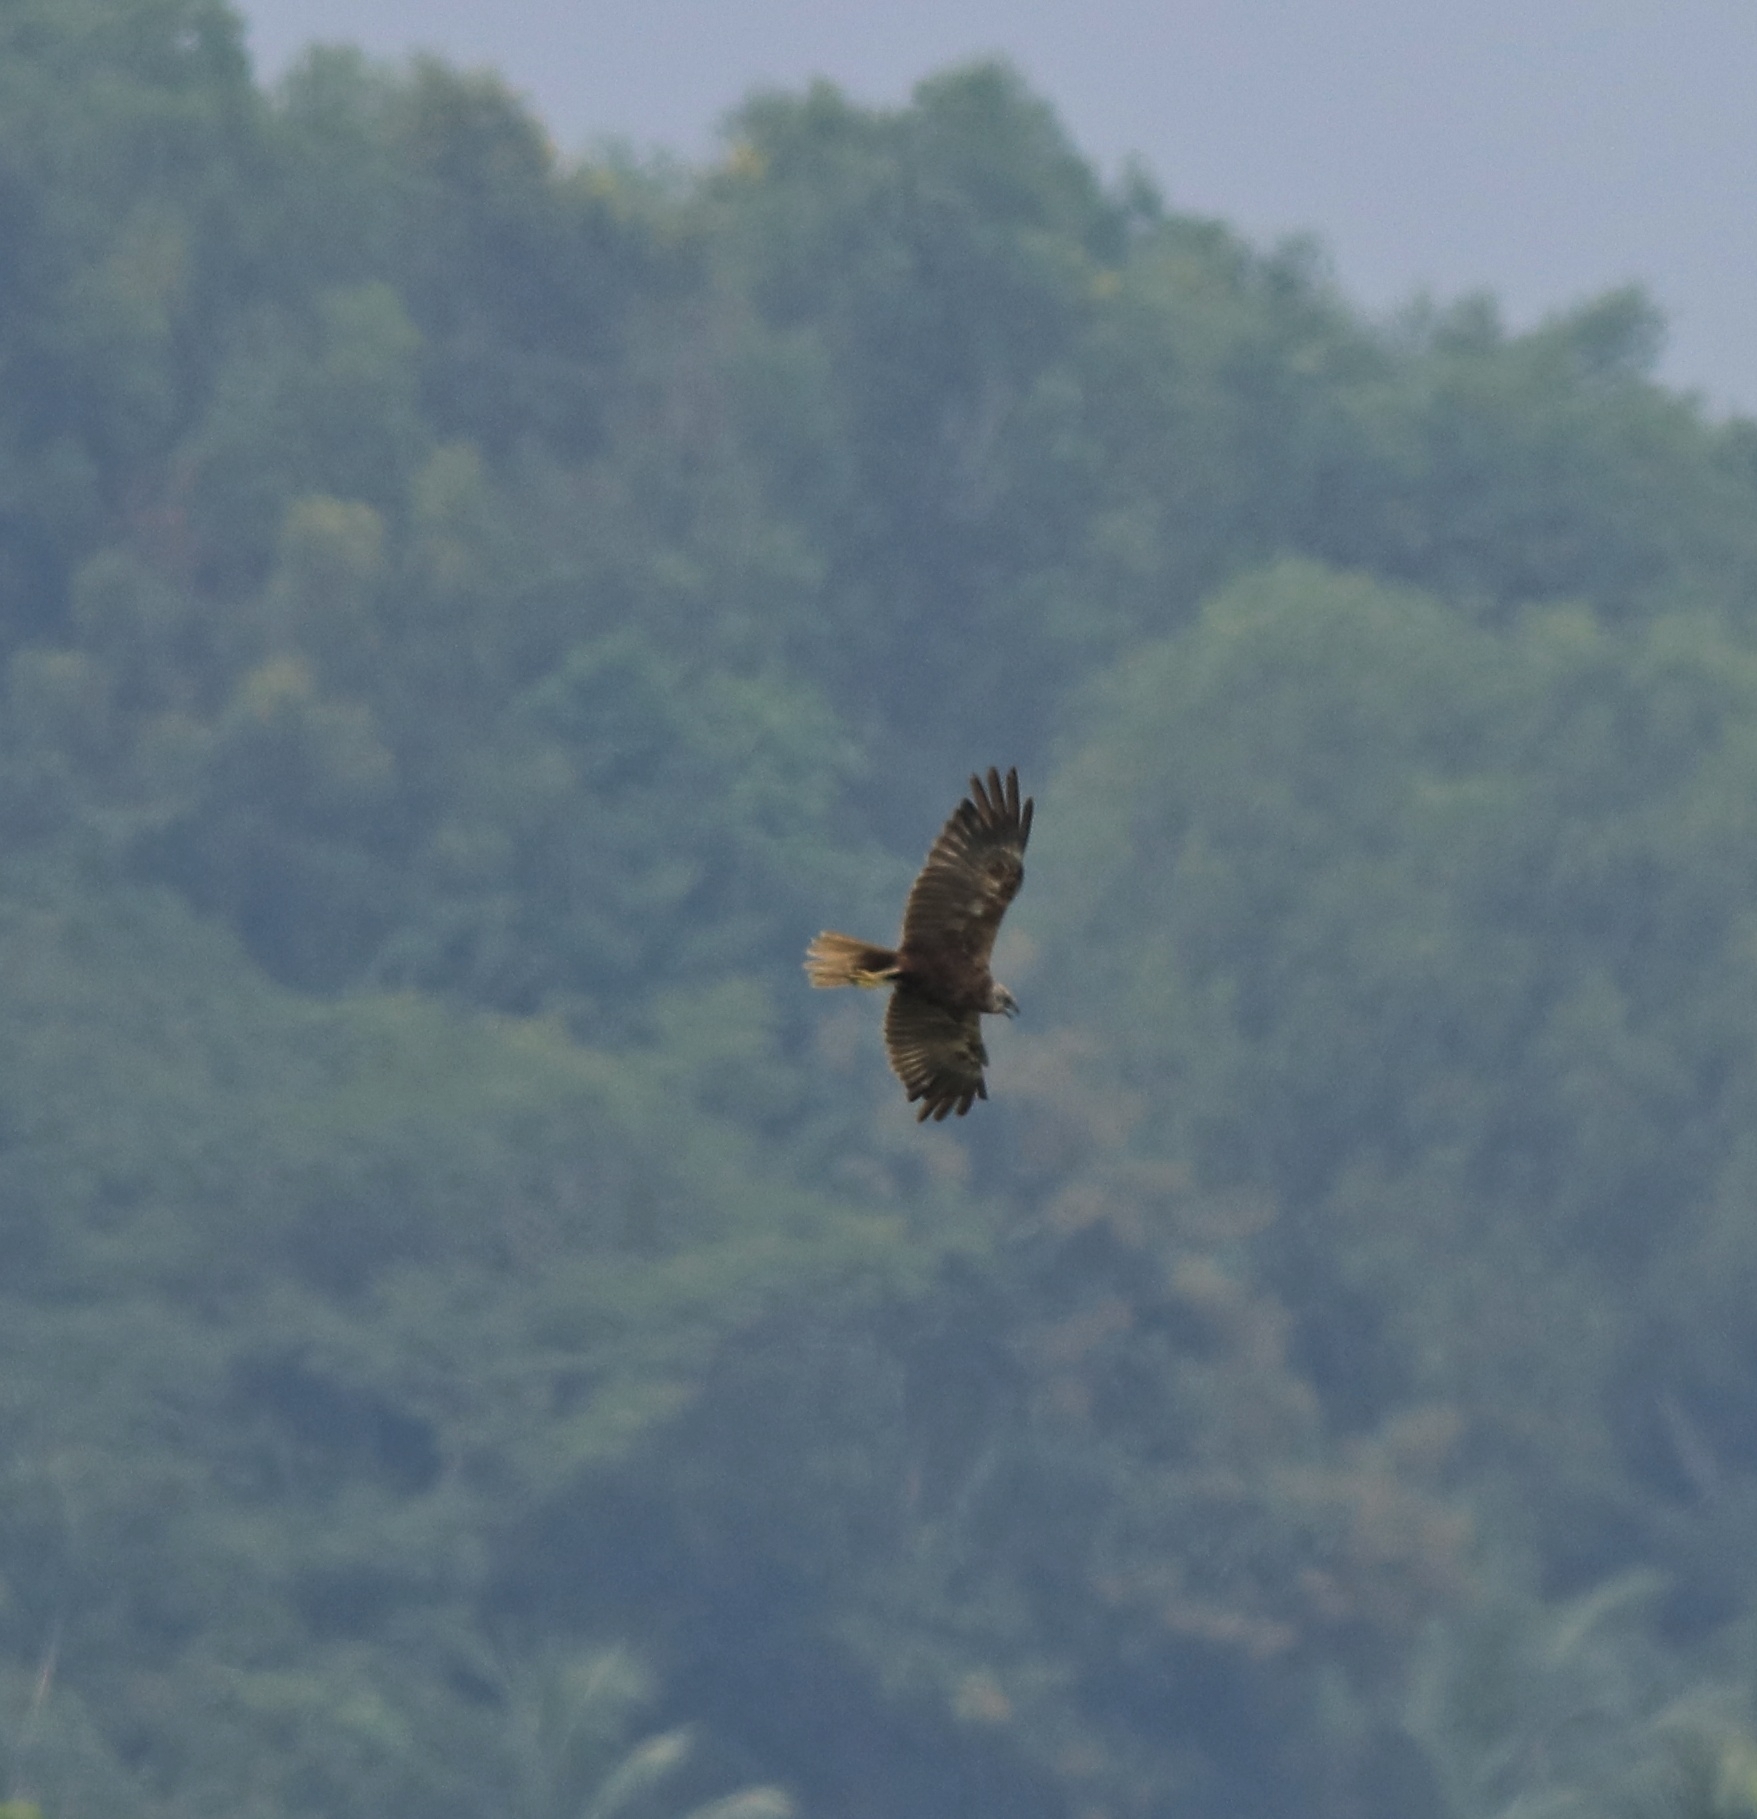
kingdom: Animalia
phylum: Chordata
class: Aves
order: Accipitriformes
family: Accipitridae
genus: Circus
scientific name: Circus aeruginosus
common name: Western marsh harrier
